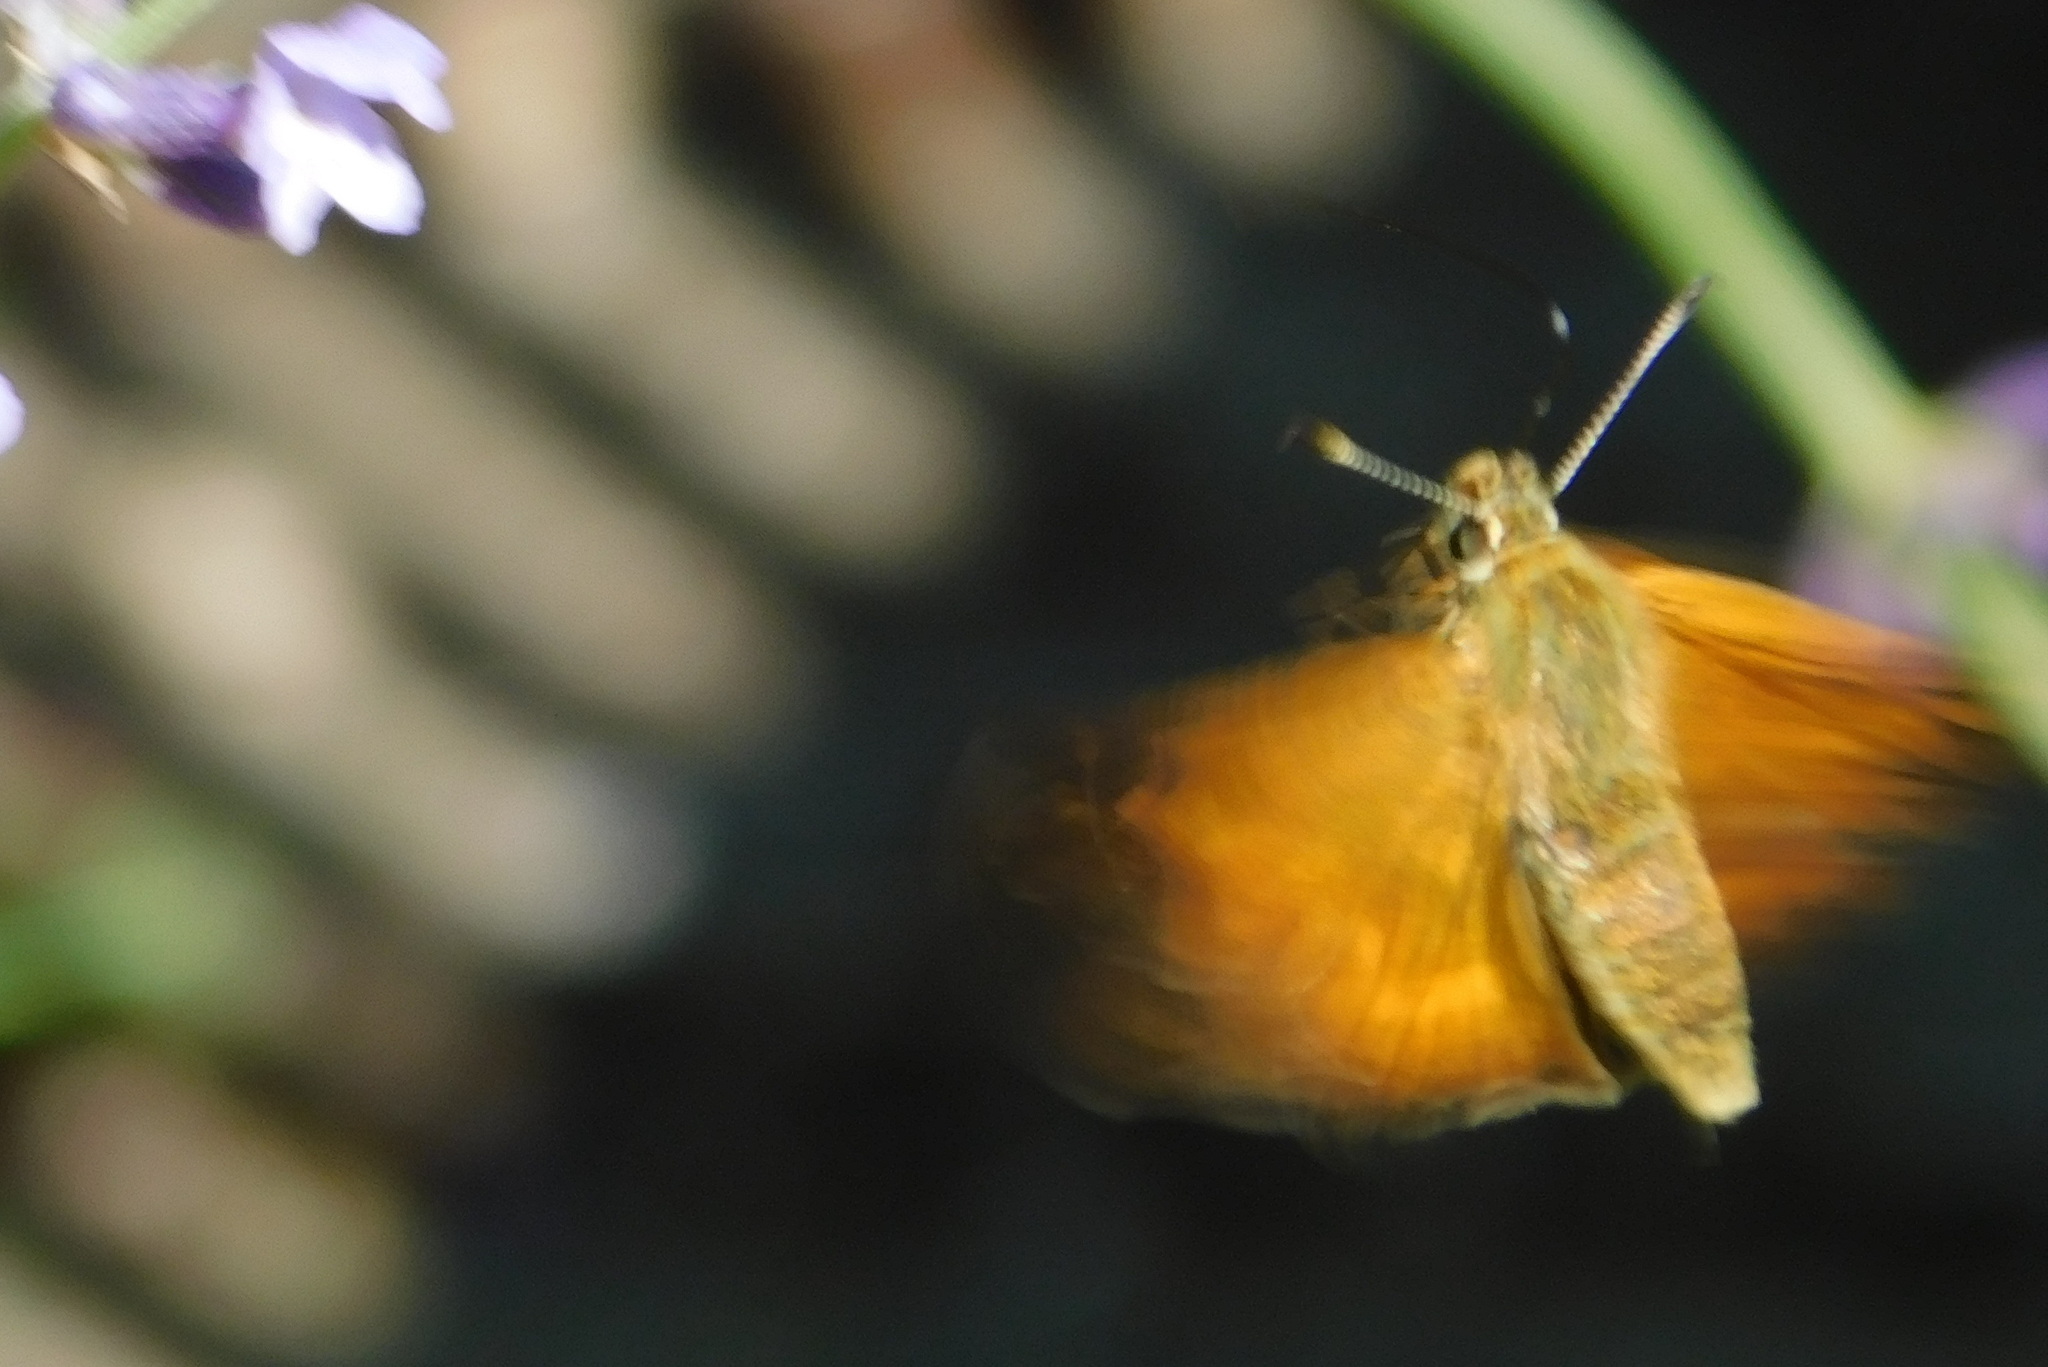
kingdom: Animalia
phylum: Arthropoda
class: Insecta
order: Lepidoptera
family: Hesperiidae
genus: Ochlodes
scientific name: Ochlodes venata
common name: Large skipper
